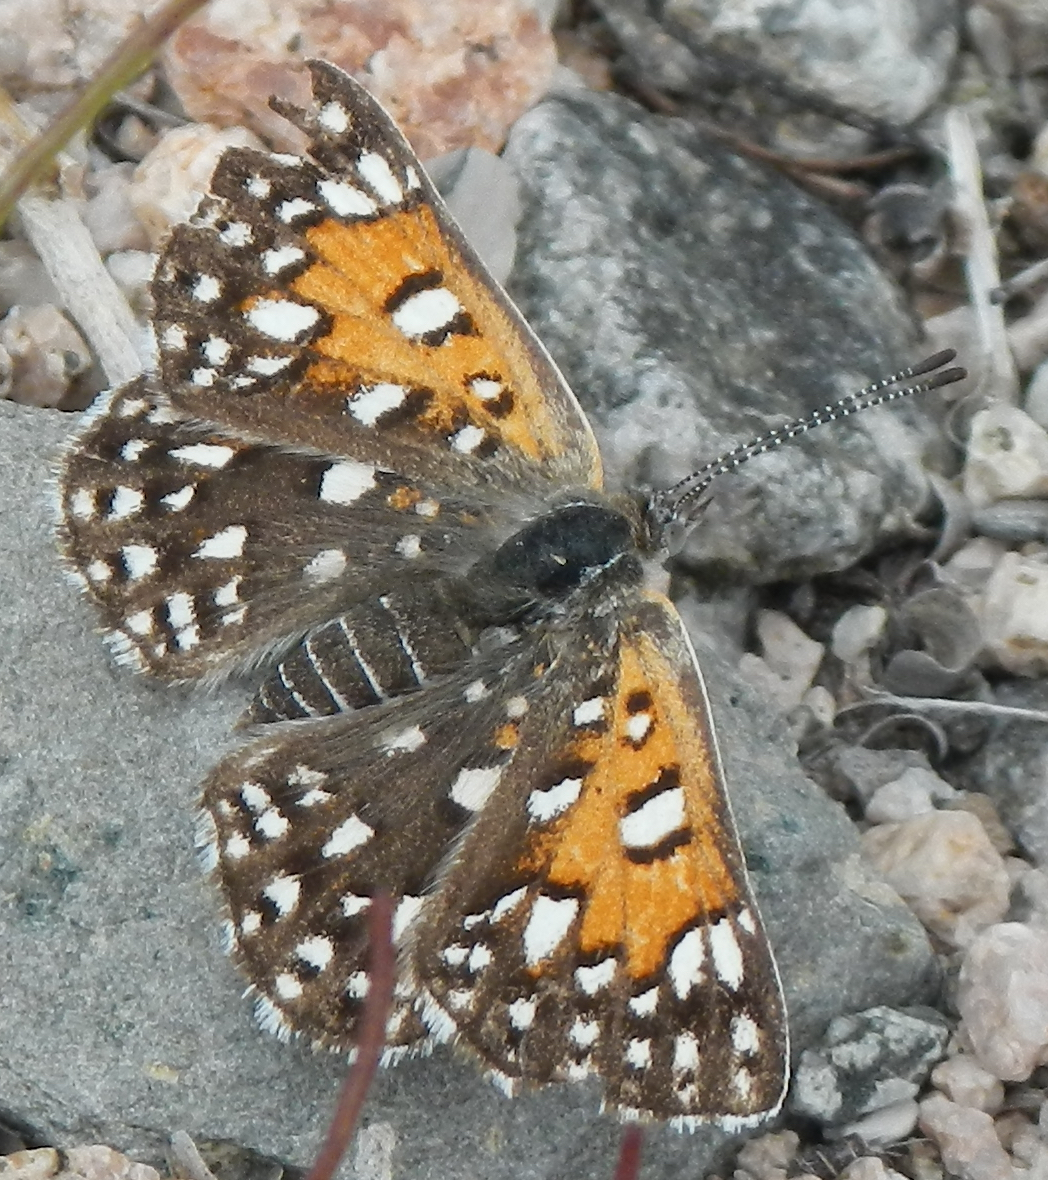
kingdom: Animalia
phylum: Arthropoda
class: Insecta
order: Lepidoptera
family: Riodinidae
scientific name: Riodinidae
